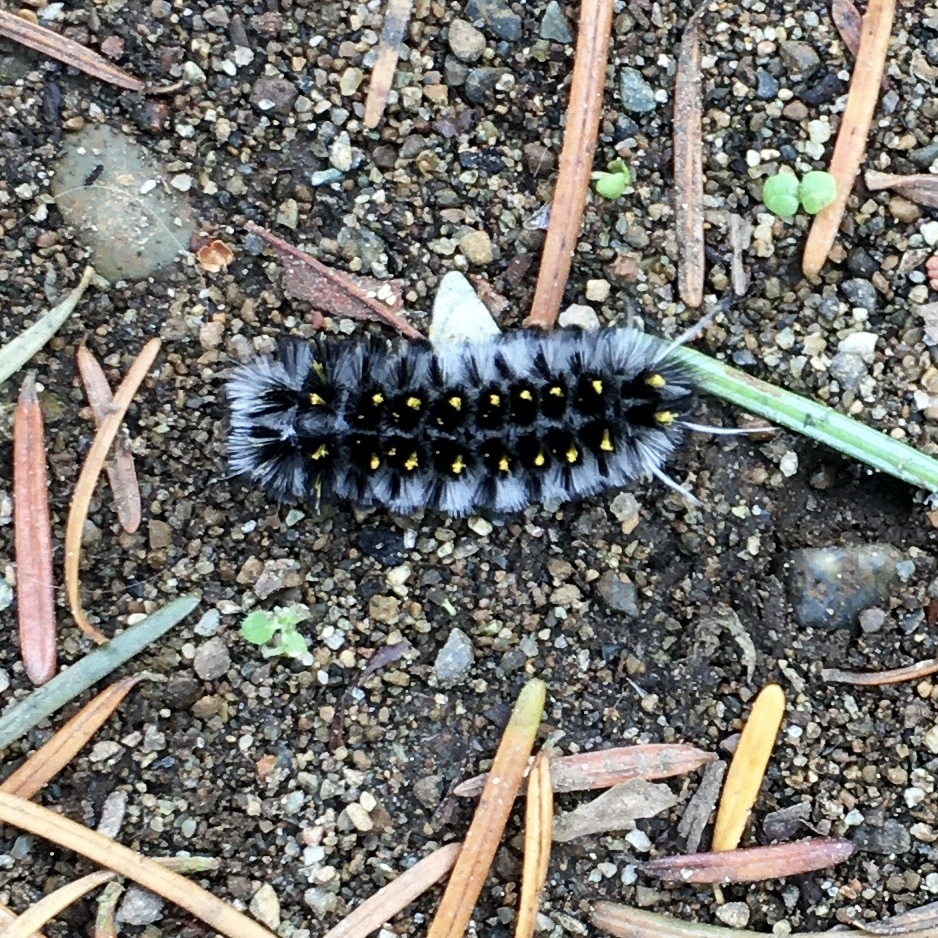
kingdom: Animalia
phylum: Arthropoda
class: Insecta
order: Lepidoptera
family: Erebidae
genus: Lophocampa
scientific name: Lophocampa roseata
